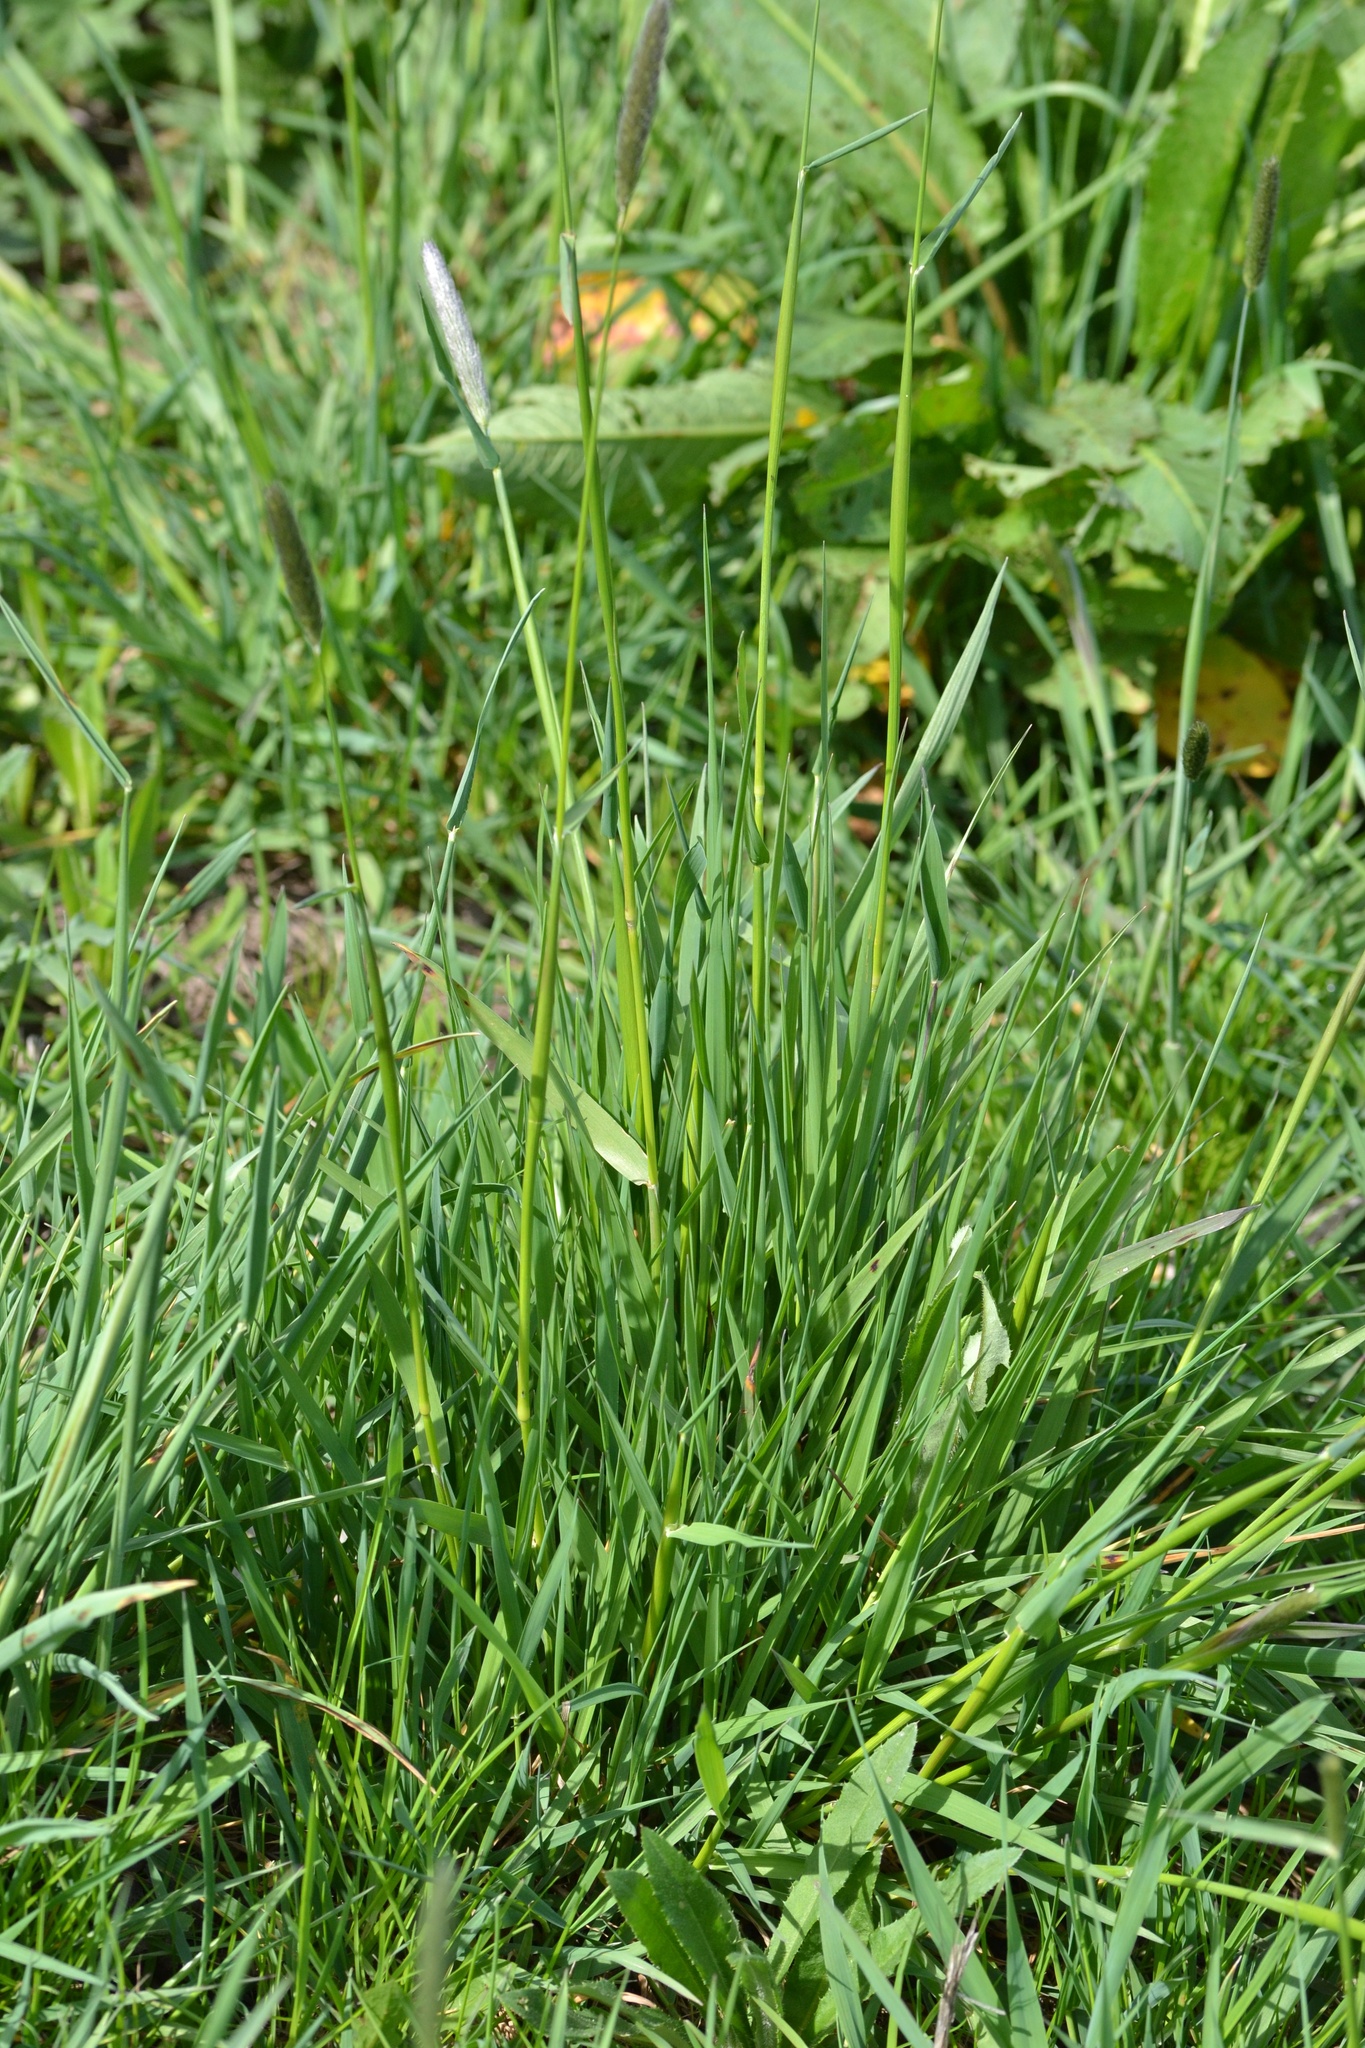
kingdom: Plantae
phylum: Tracheophyta
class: Liliopsida
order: Poales
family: Poaceae
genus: Alopecurus
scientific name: Alopecurus pratensis
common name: Meadow foxtail
